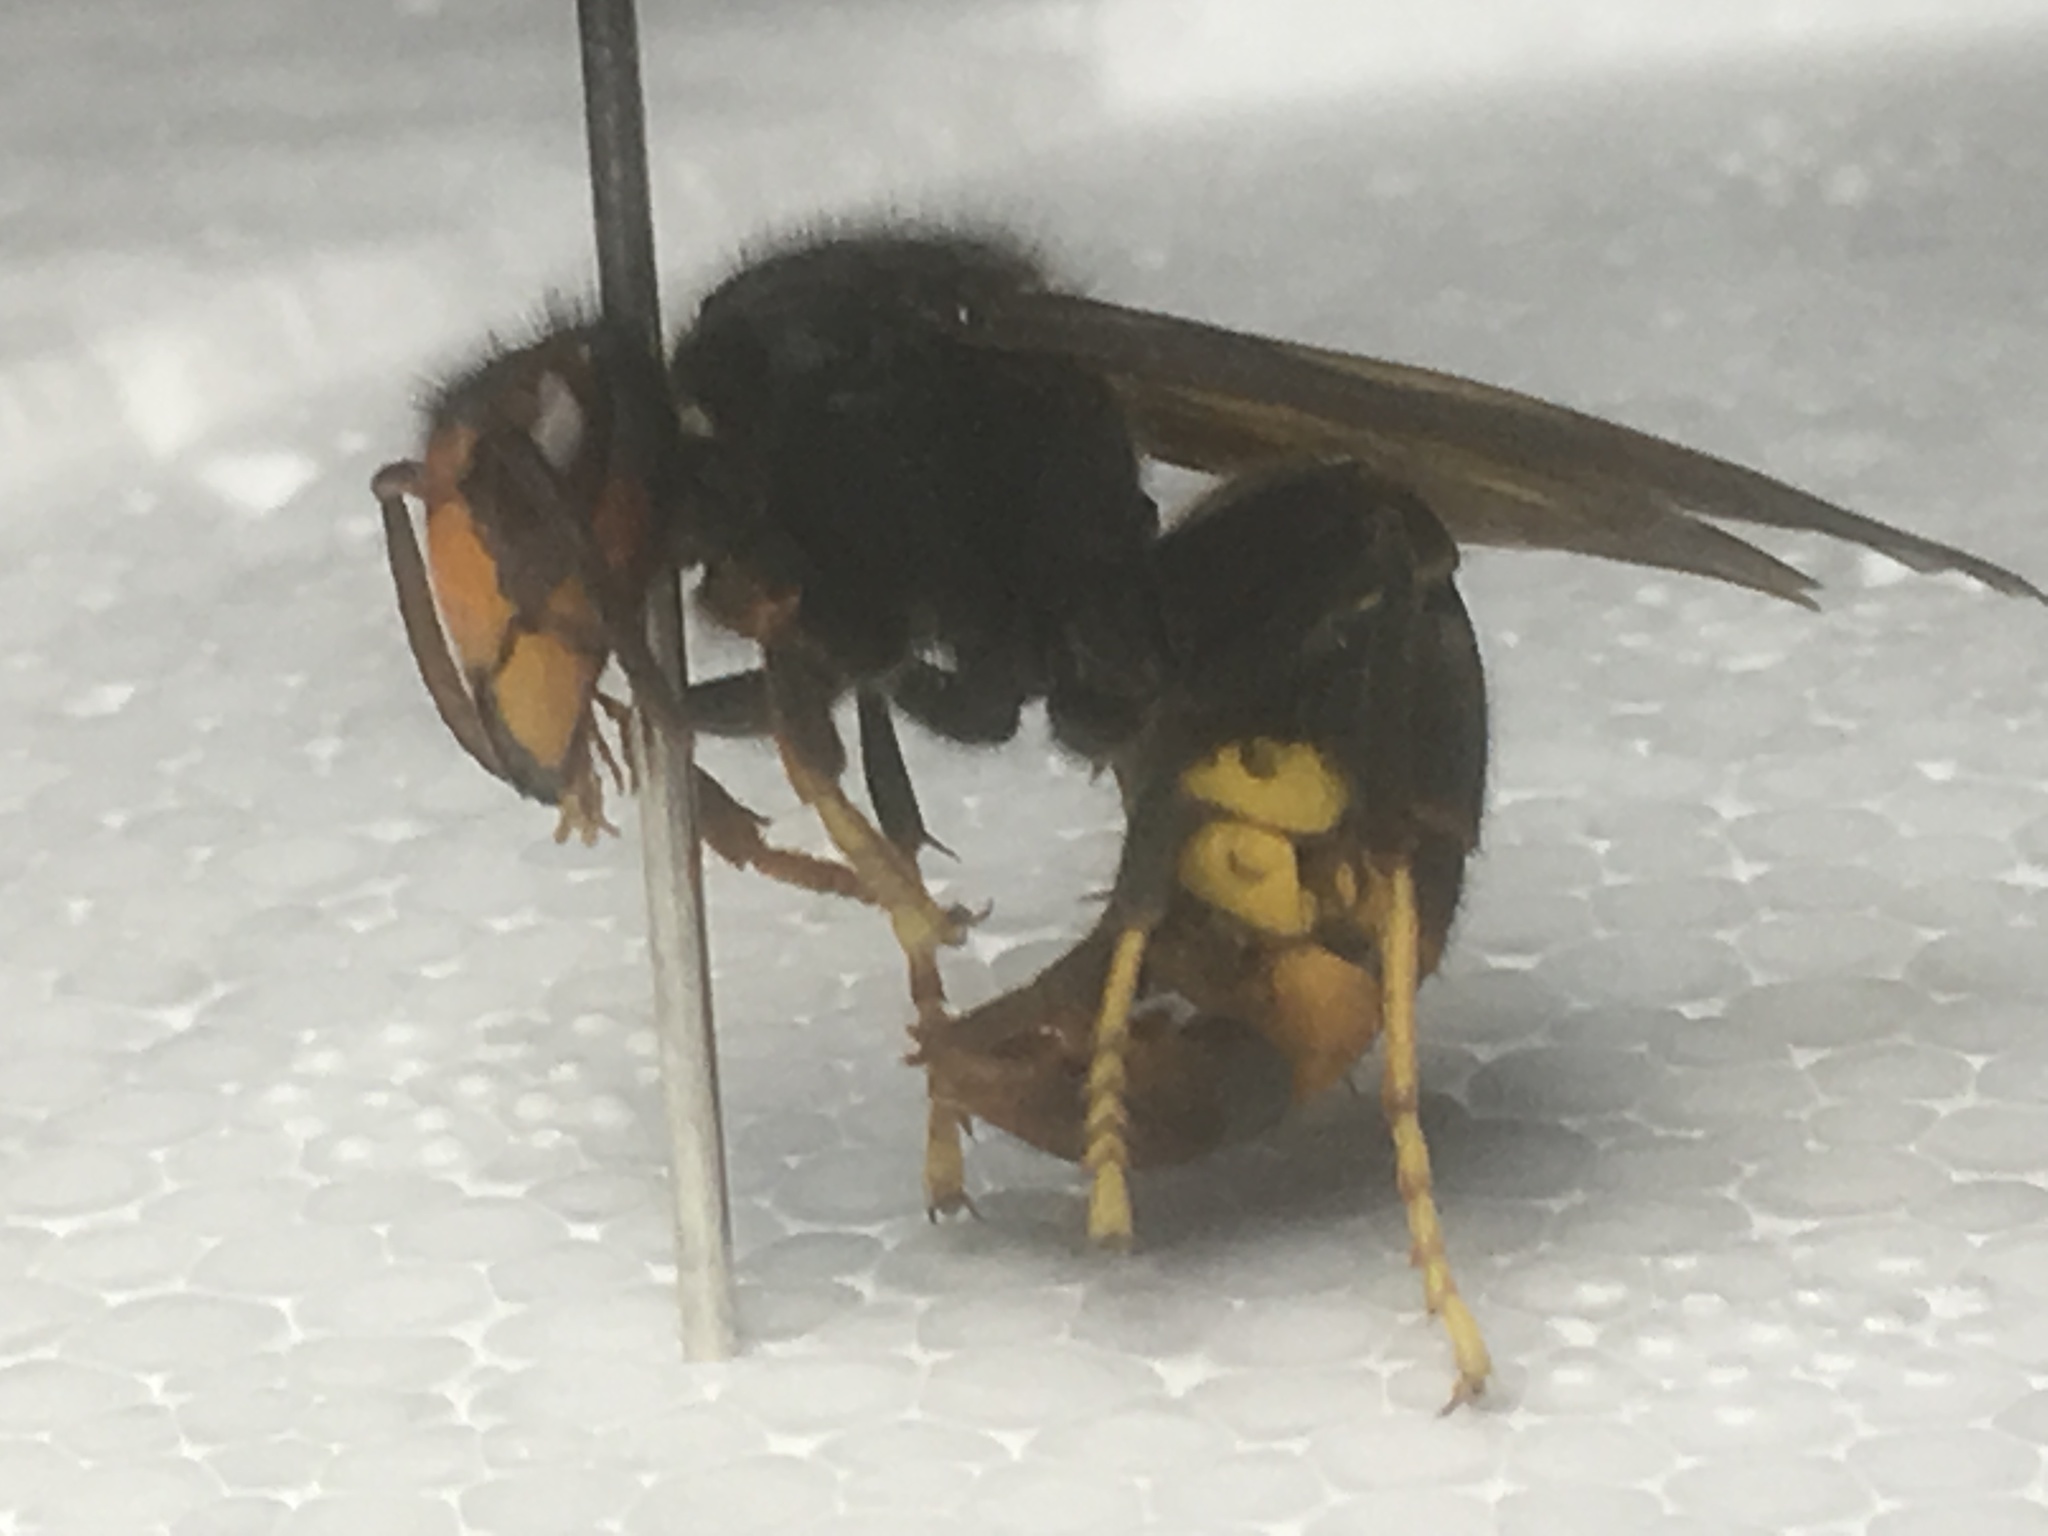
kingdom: Animalia
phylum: Arthropoda
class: Insecta
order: Hymenoptera
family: Vespidae
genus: Vespa
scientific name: Vespa velutina
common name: Asian hornet
